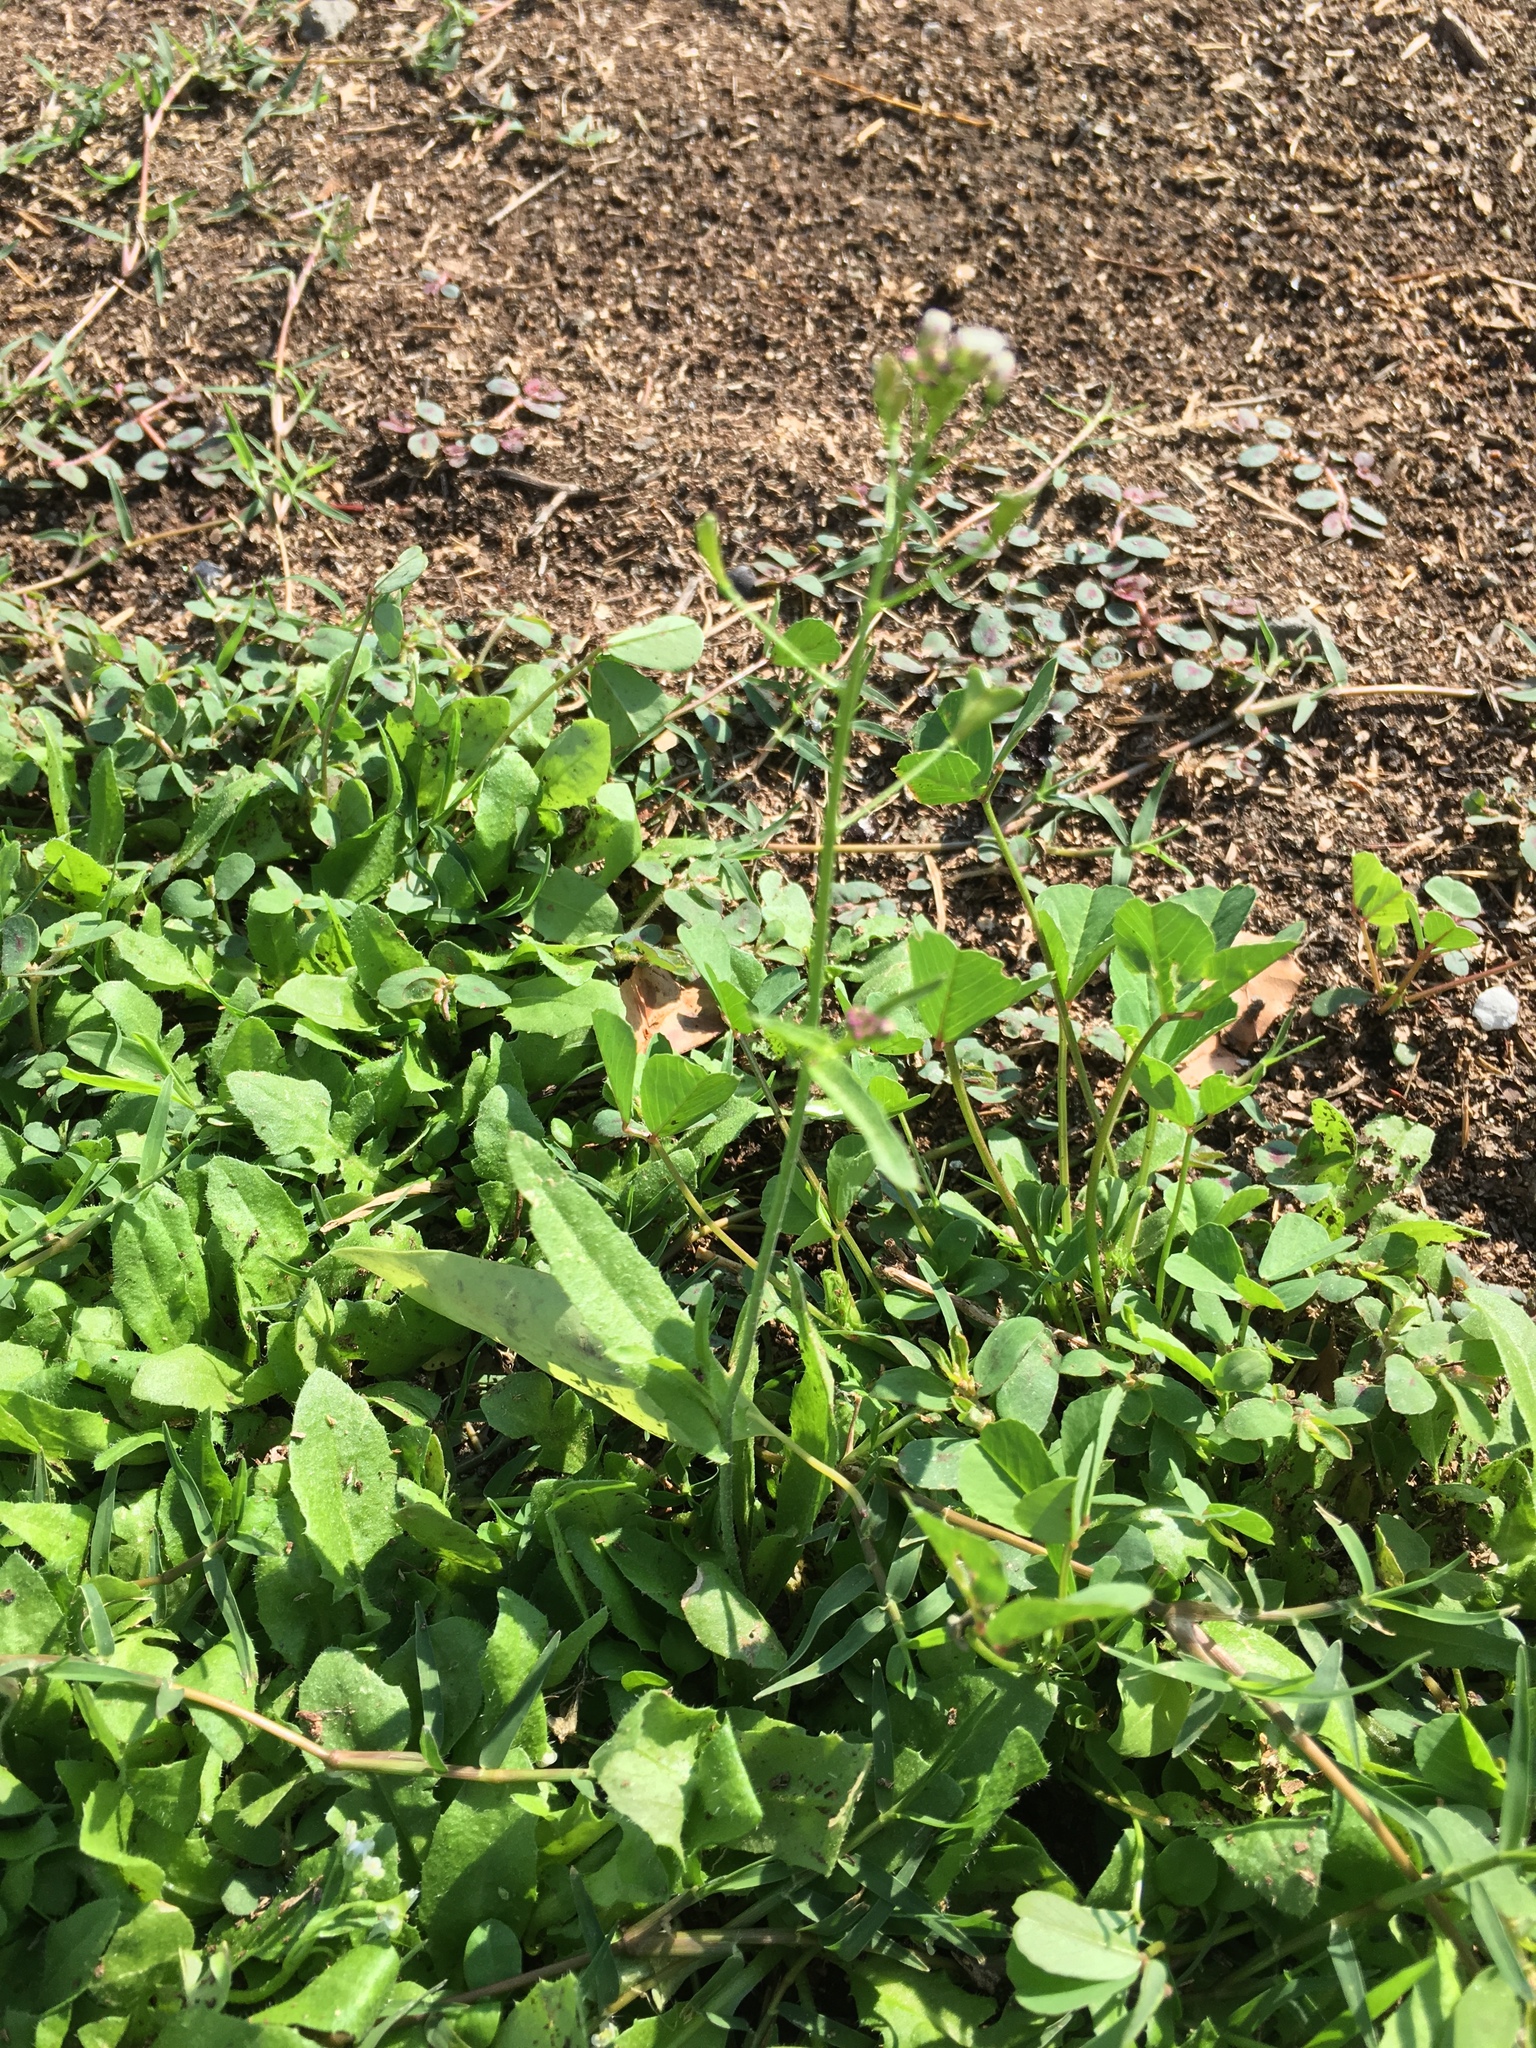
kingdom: Plantae
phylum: Tracheophyta
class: Magnoliopsida
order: Brassicales
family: Brassicaceae
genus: Capsella
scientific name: Capsella bursa-pastoris
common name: Shepherd's purse
